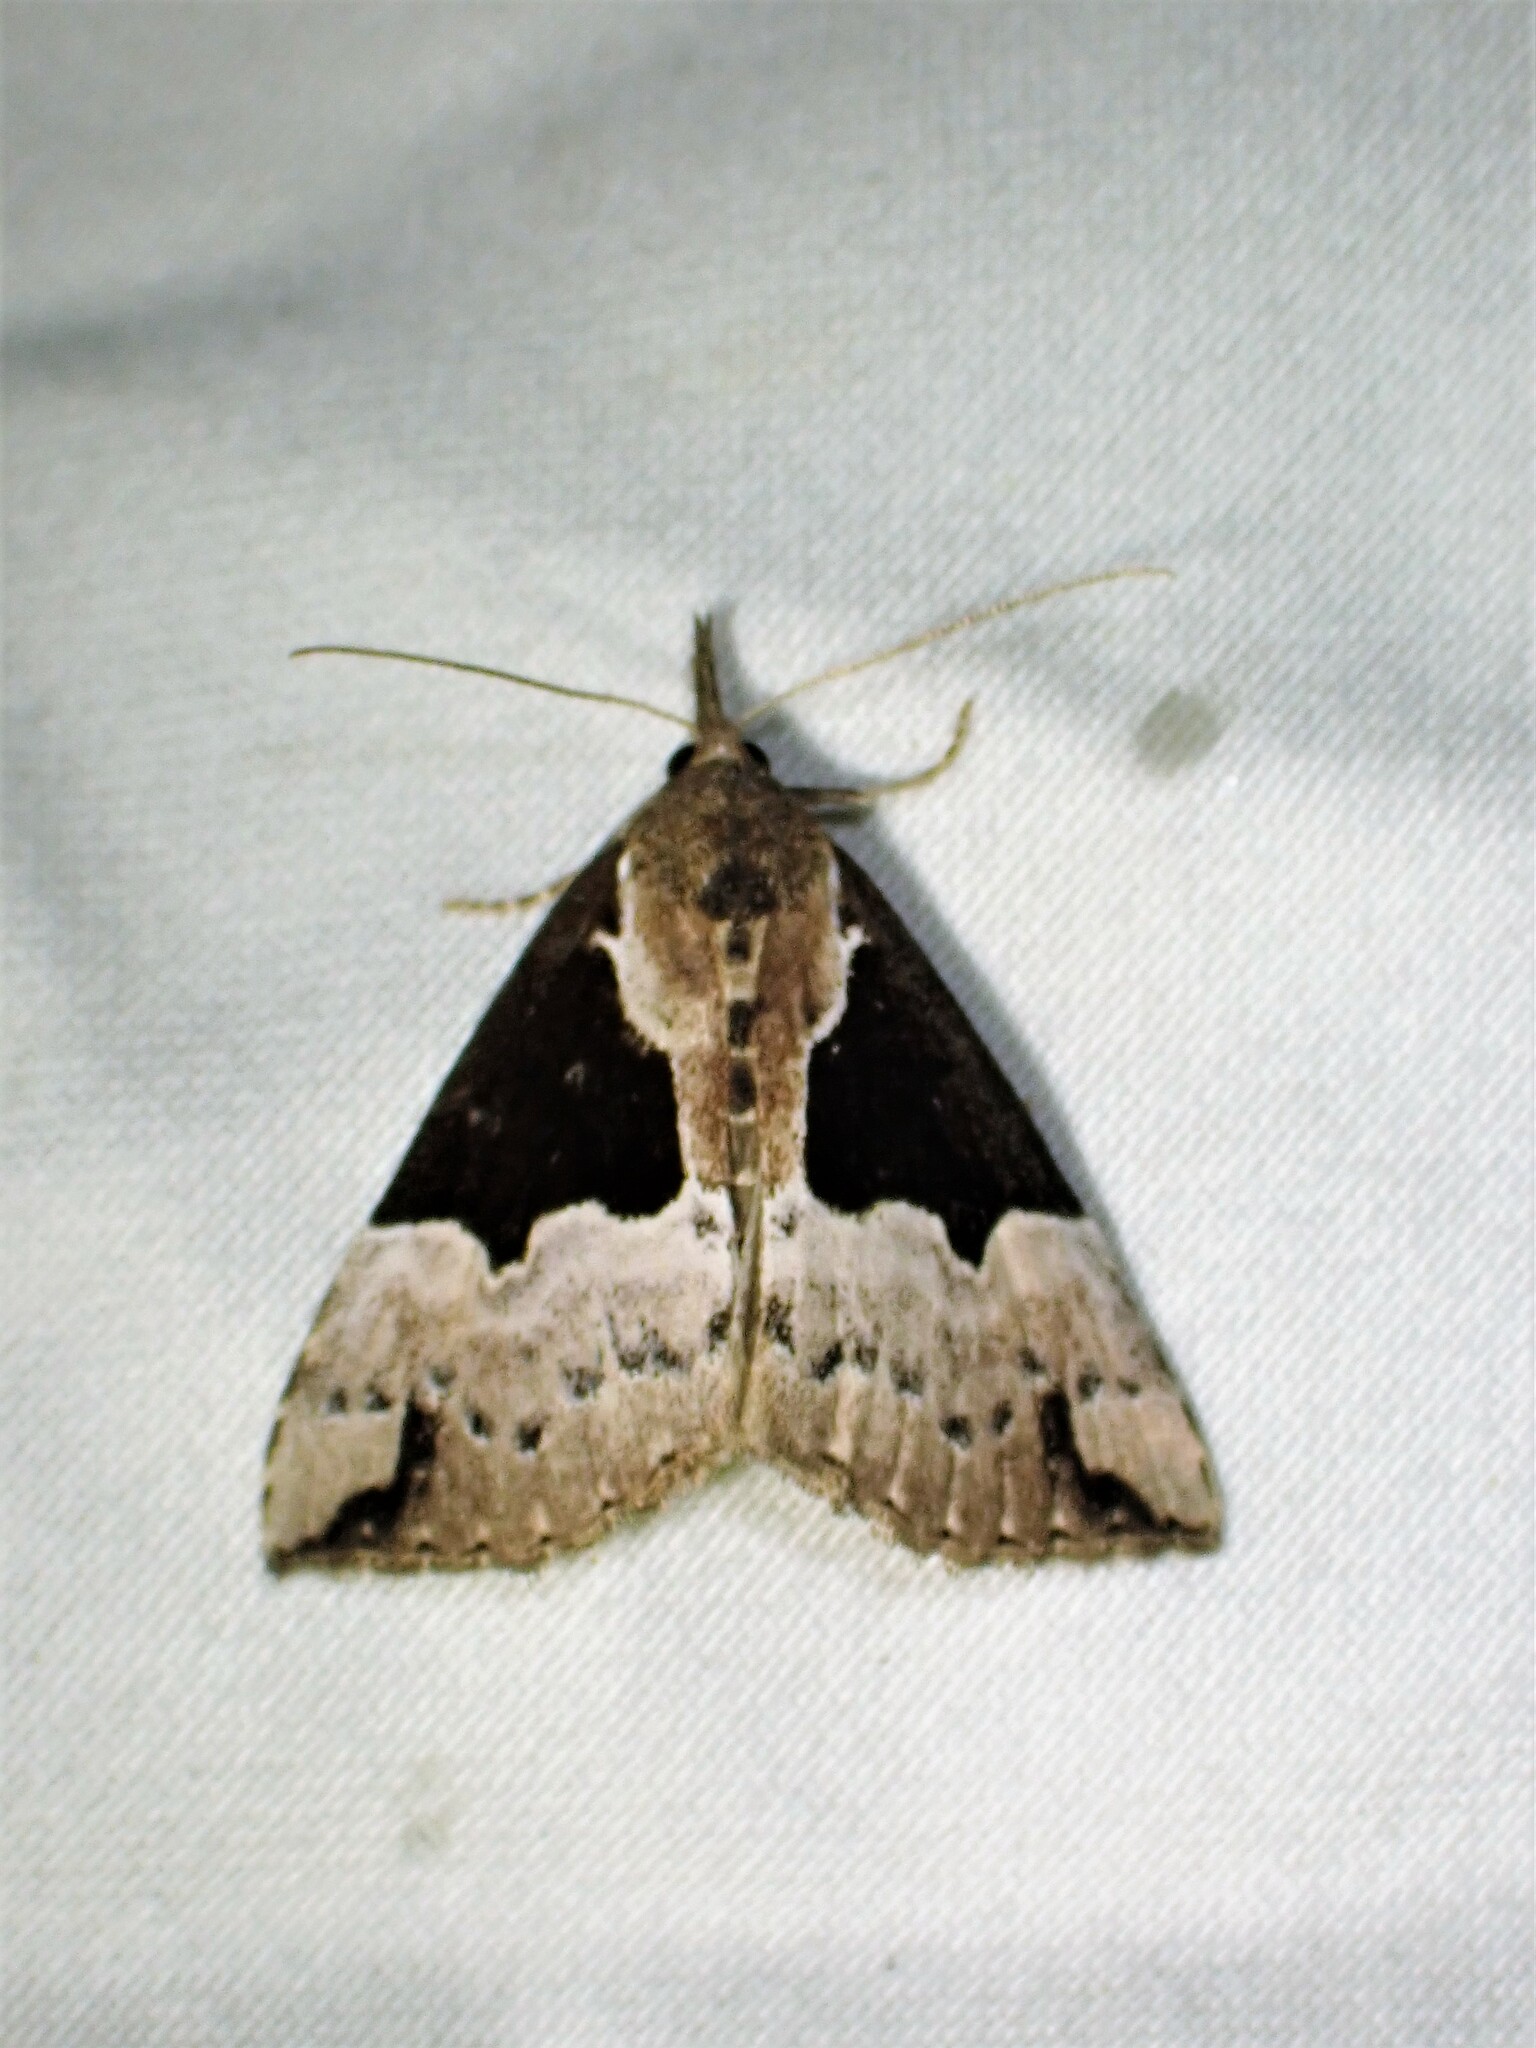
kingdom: Animalia
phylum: Arthropoda
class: Insecta
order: Lepidoptera
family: Erebidae
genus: Hypena
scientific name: Hypena bijugalis
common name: Dimorphic bomolocha moth
